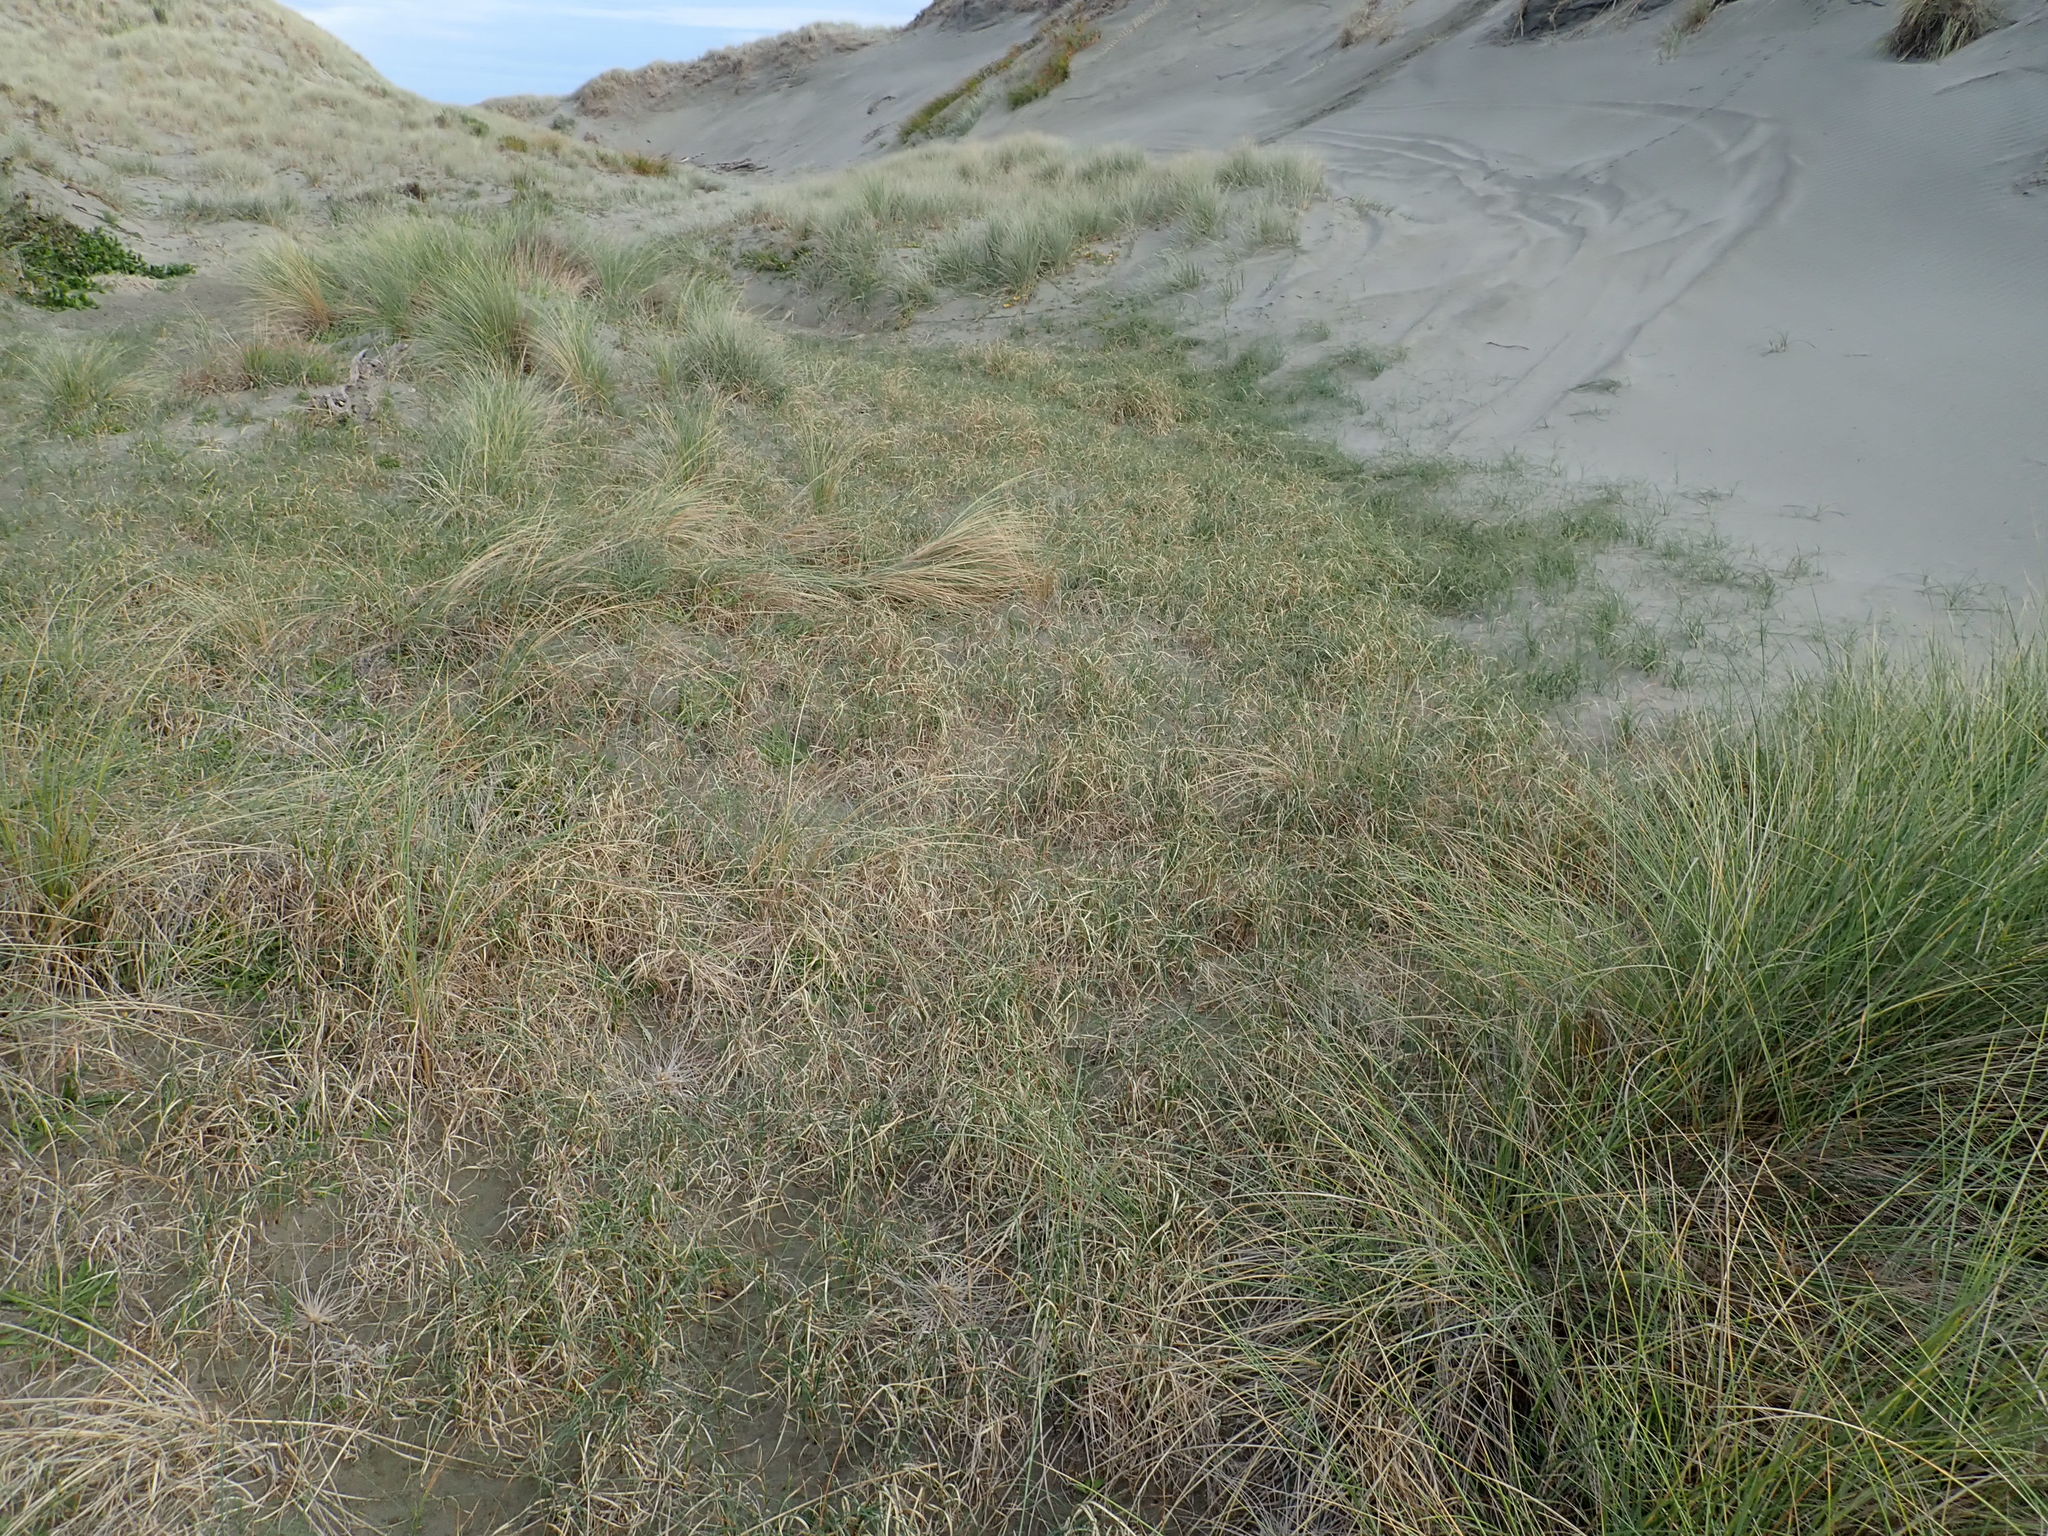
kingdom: Plantae
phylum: Tracheophyta
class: Liliopsida
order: Poales
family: Cyperaceae
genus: Carex
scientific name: Carex pumila
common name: Dwarf sedge
